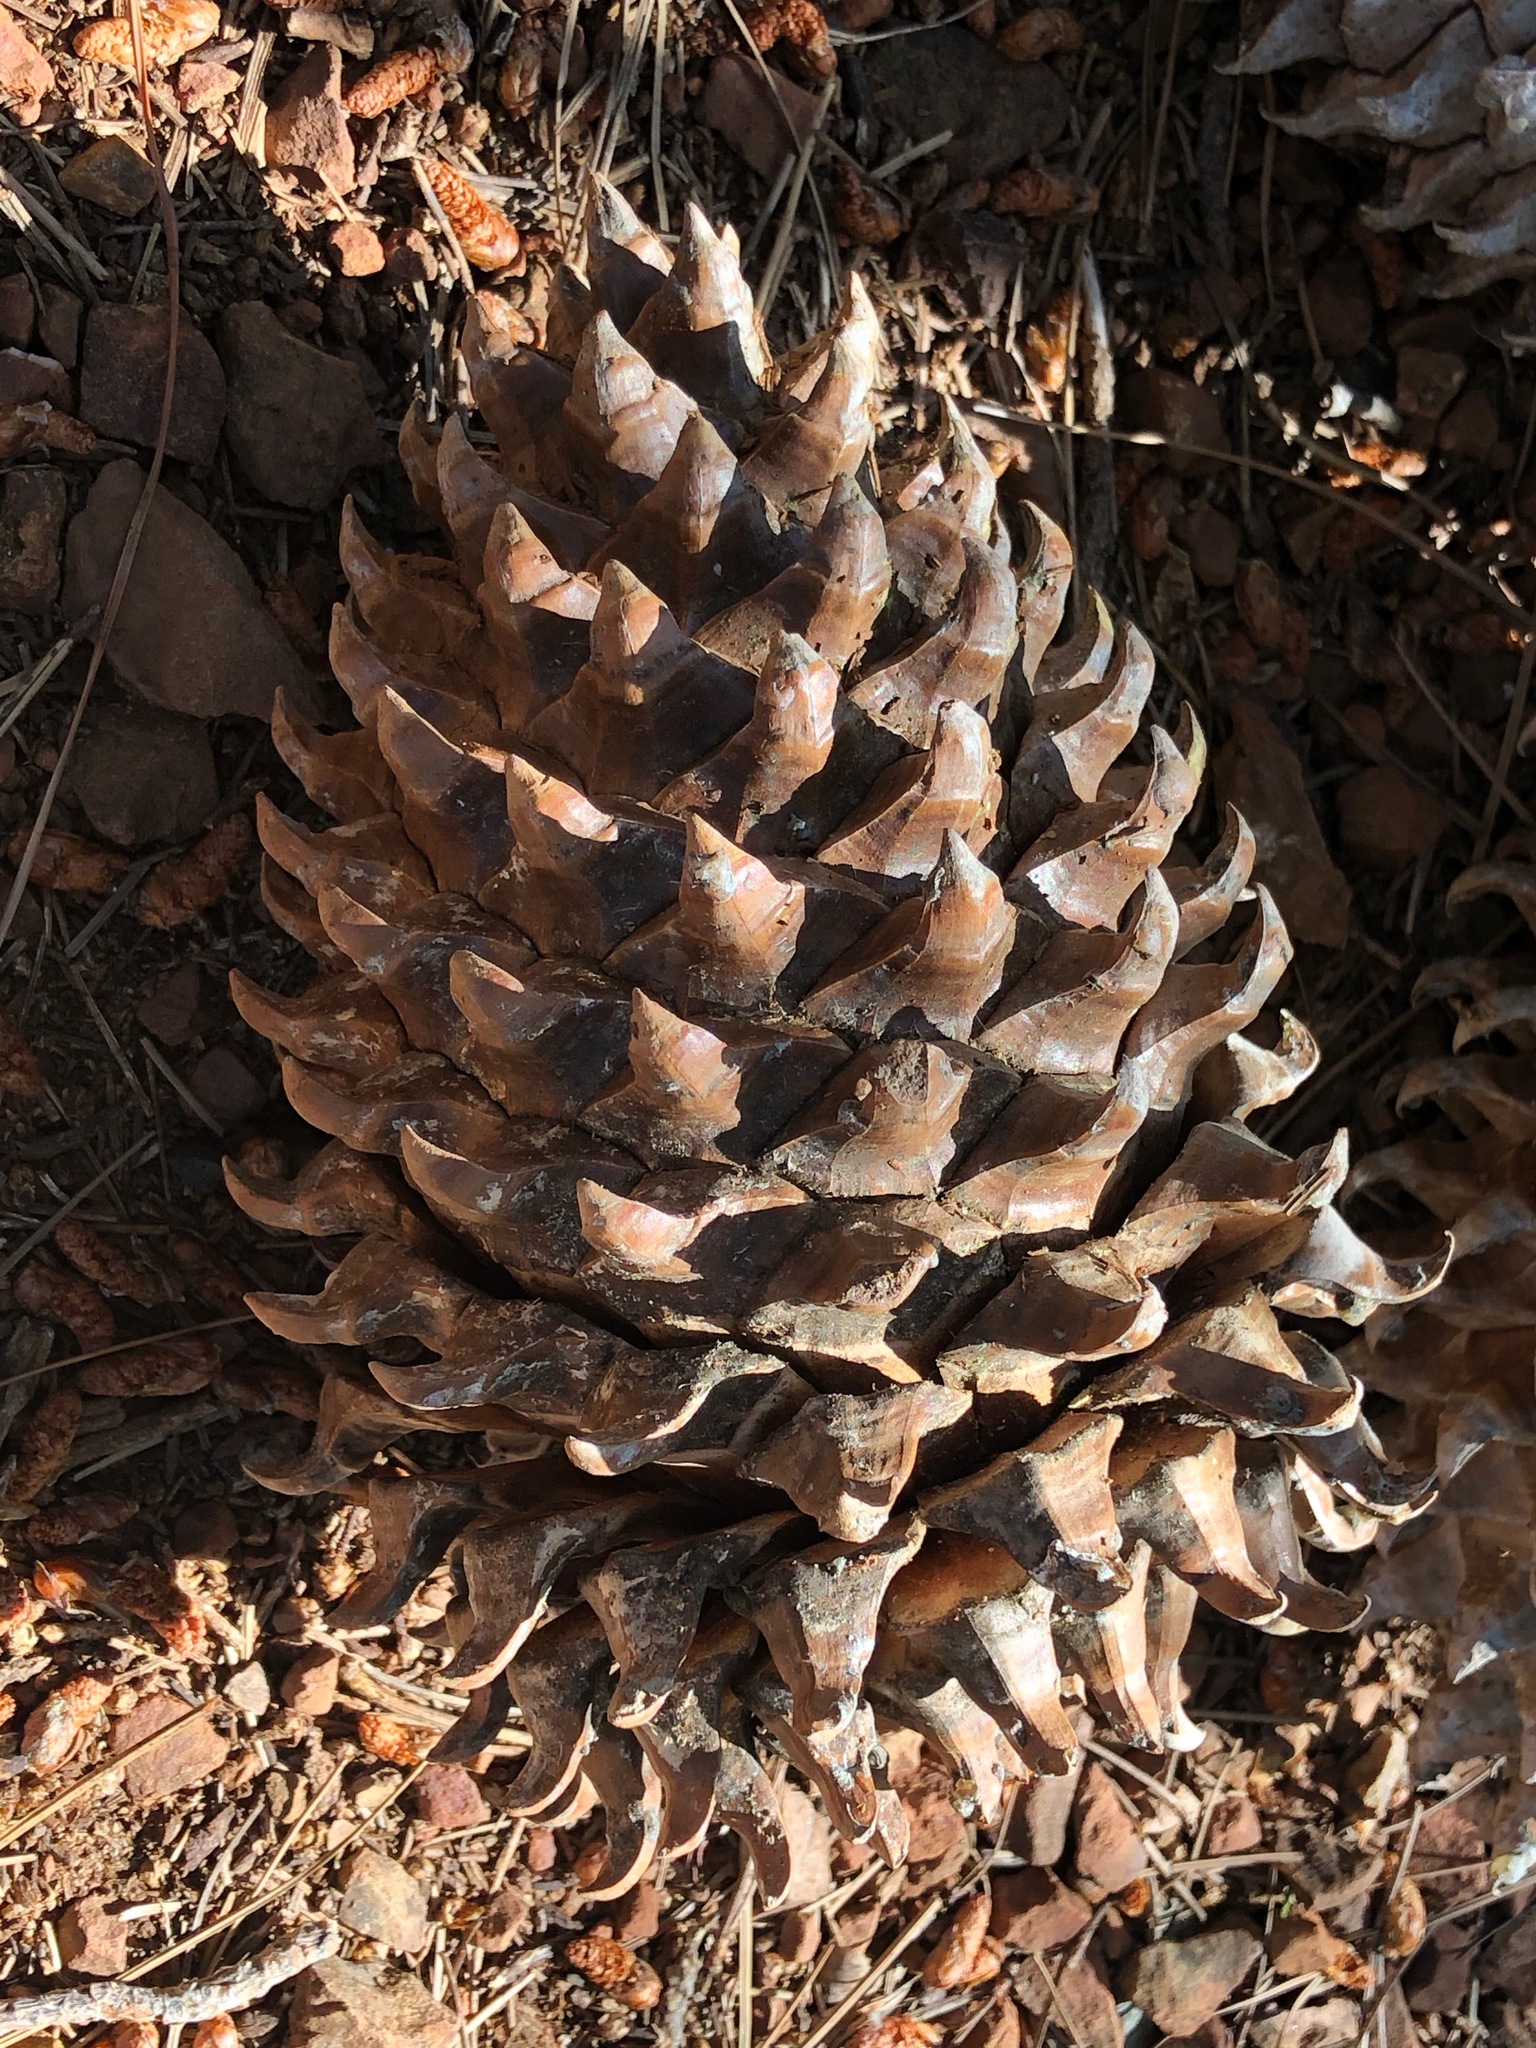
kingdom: Plantae
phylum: Tracheophyta
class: Pinopsida
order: Pinales
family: Pinaceae
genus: Pinus
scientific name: Pinus sabiniana
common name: Bull pine
